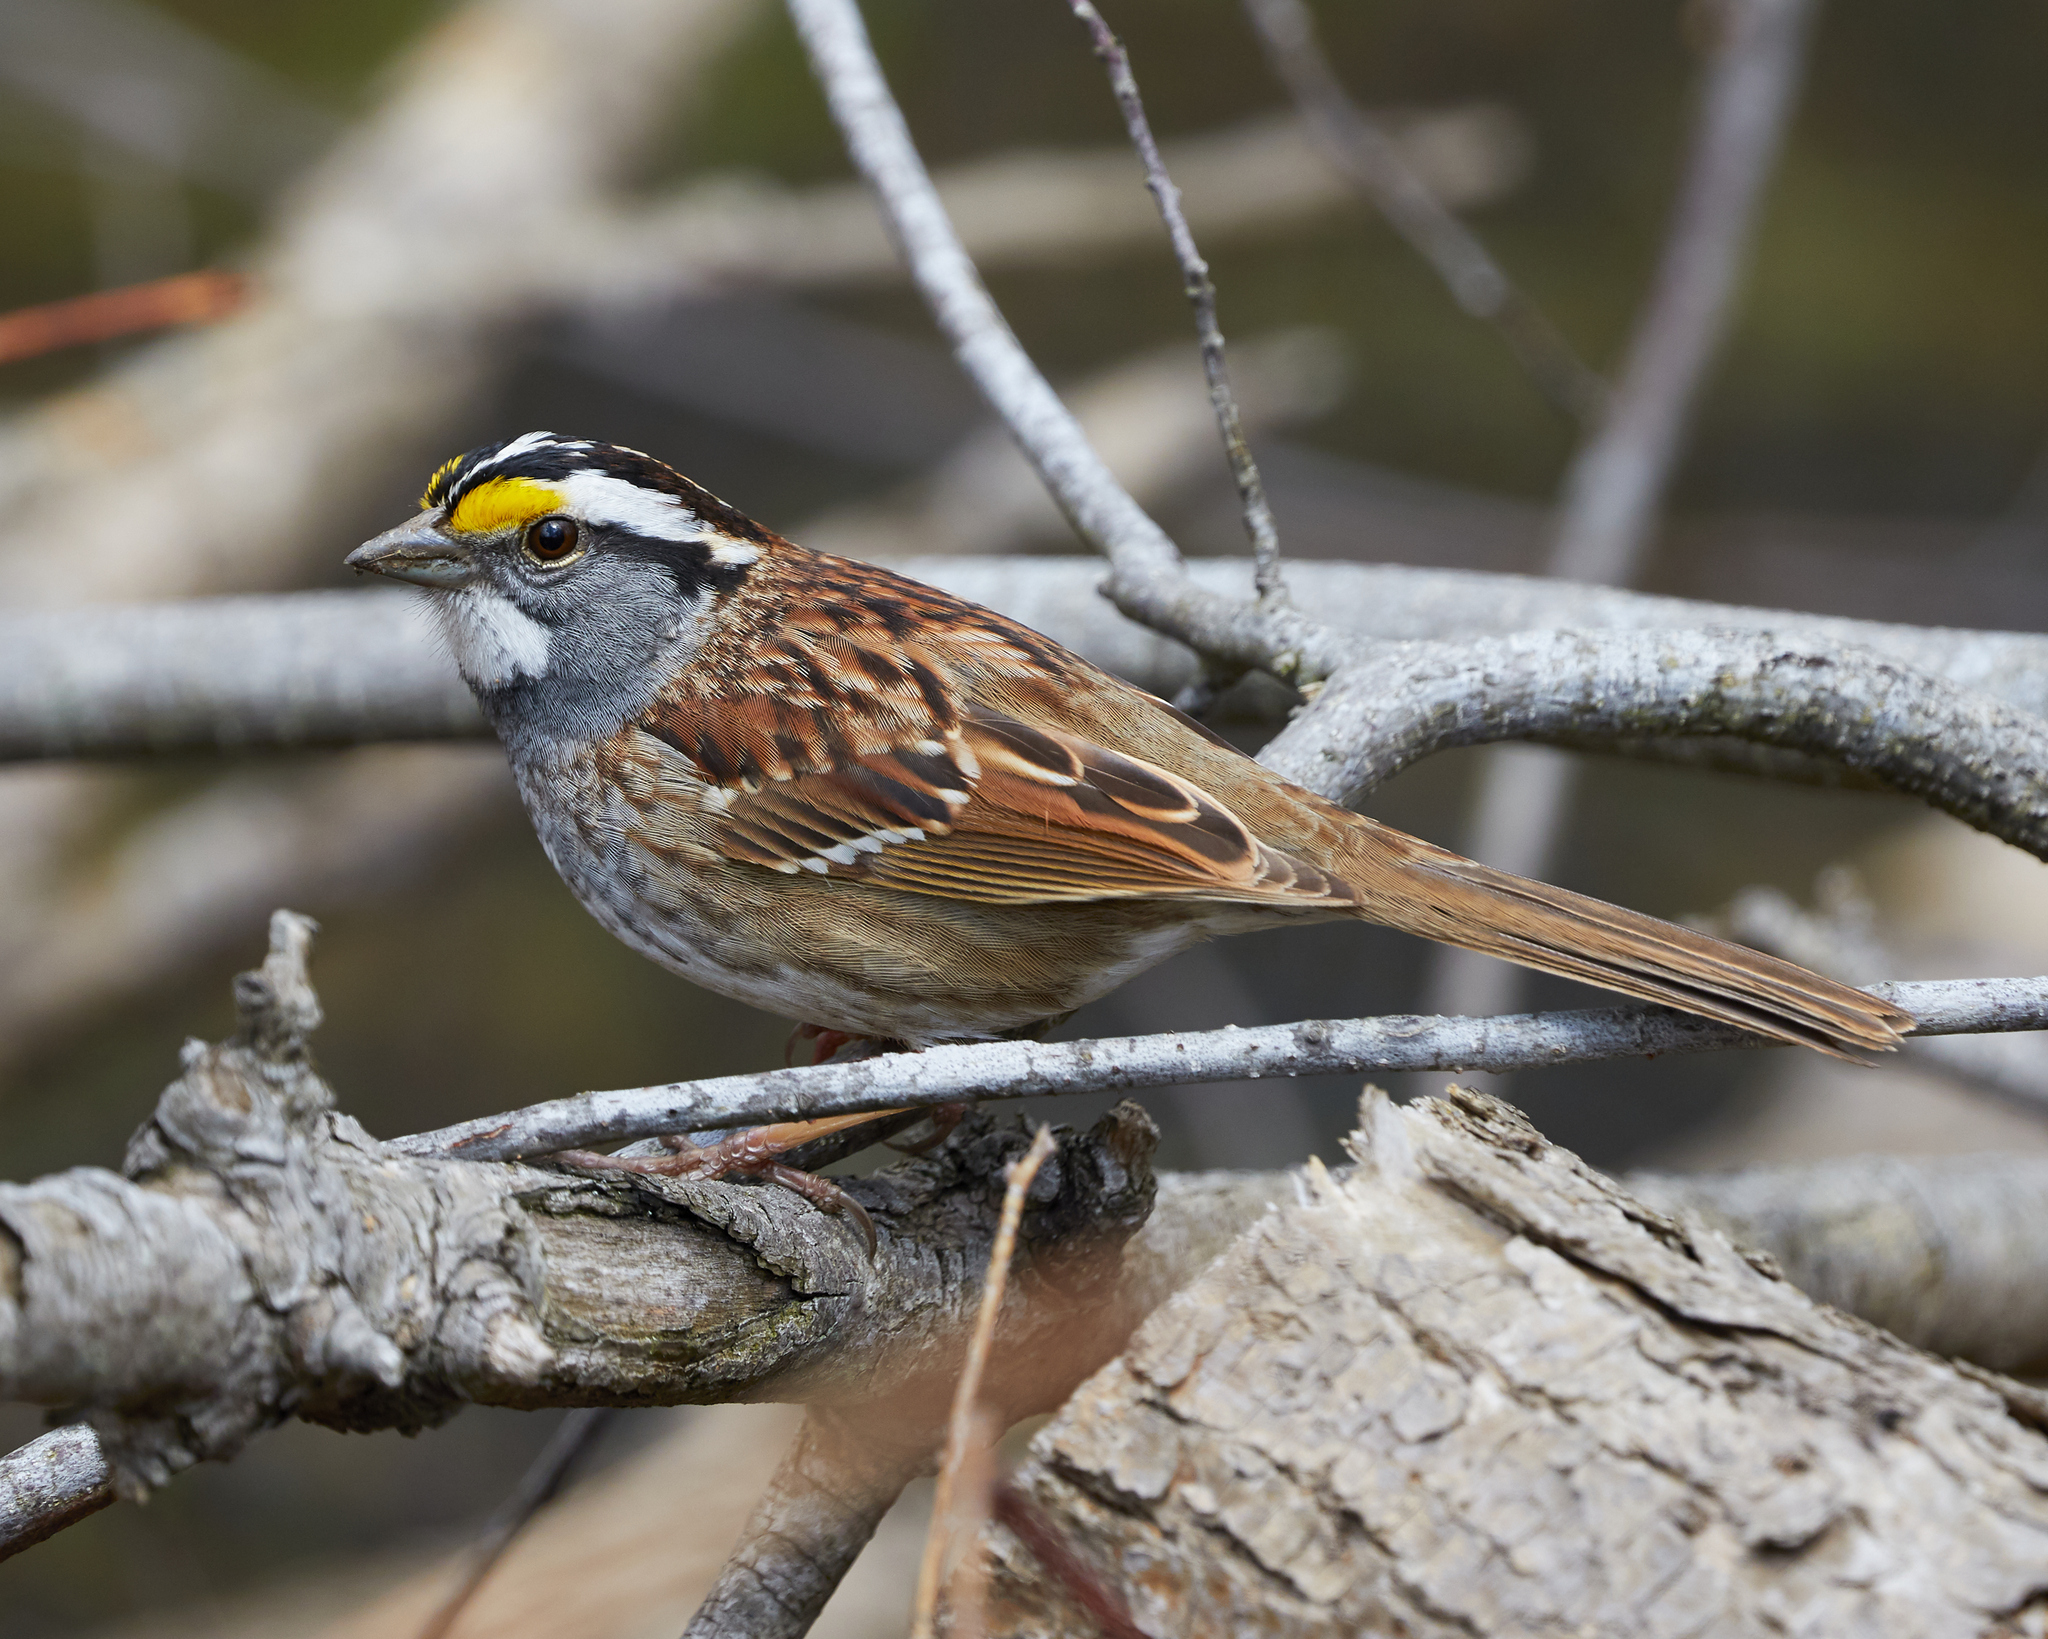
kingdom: Animalia
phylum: Chordata
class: Aves
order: Passeriformes
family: Passerellidae
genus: Zonotrichia
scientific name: Zonotrichia albicollis
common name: White-throated sparrow
